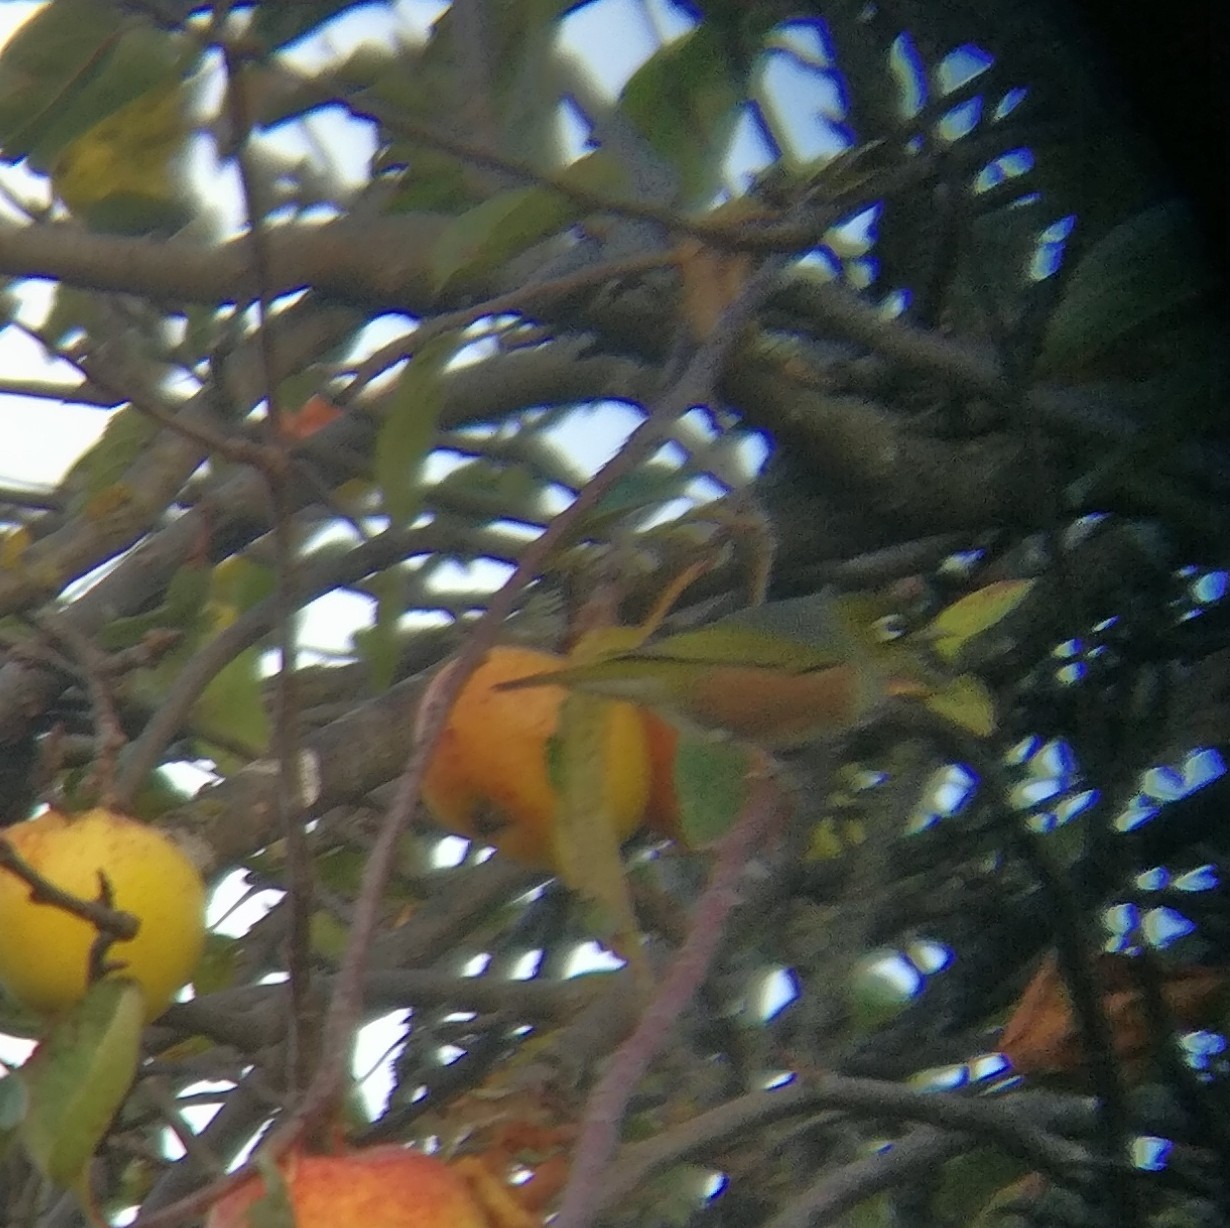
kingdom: Animalia
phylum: Chordata
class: Aves
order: Passeriformes
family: Zosteropidae
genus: Zosterops
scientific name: Zosterops lateralis
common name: Silvereye
